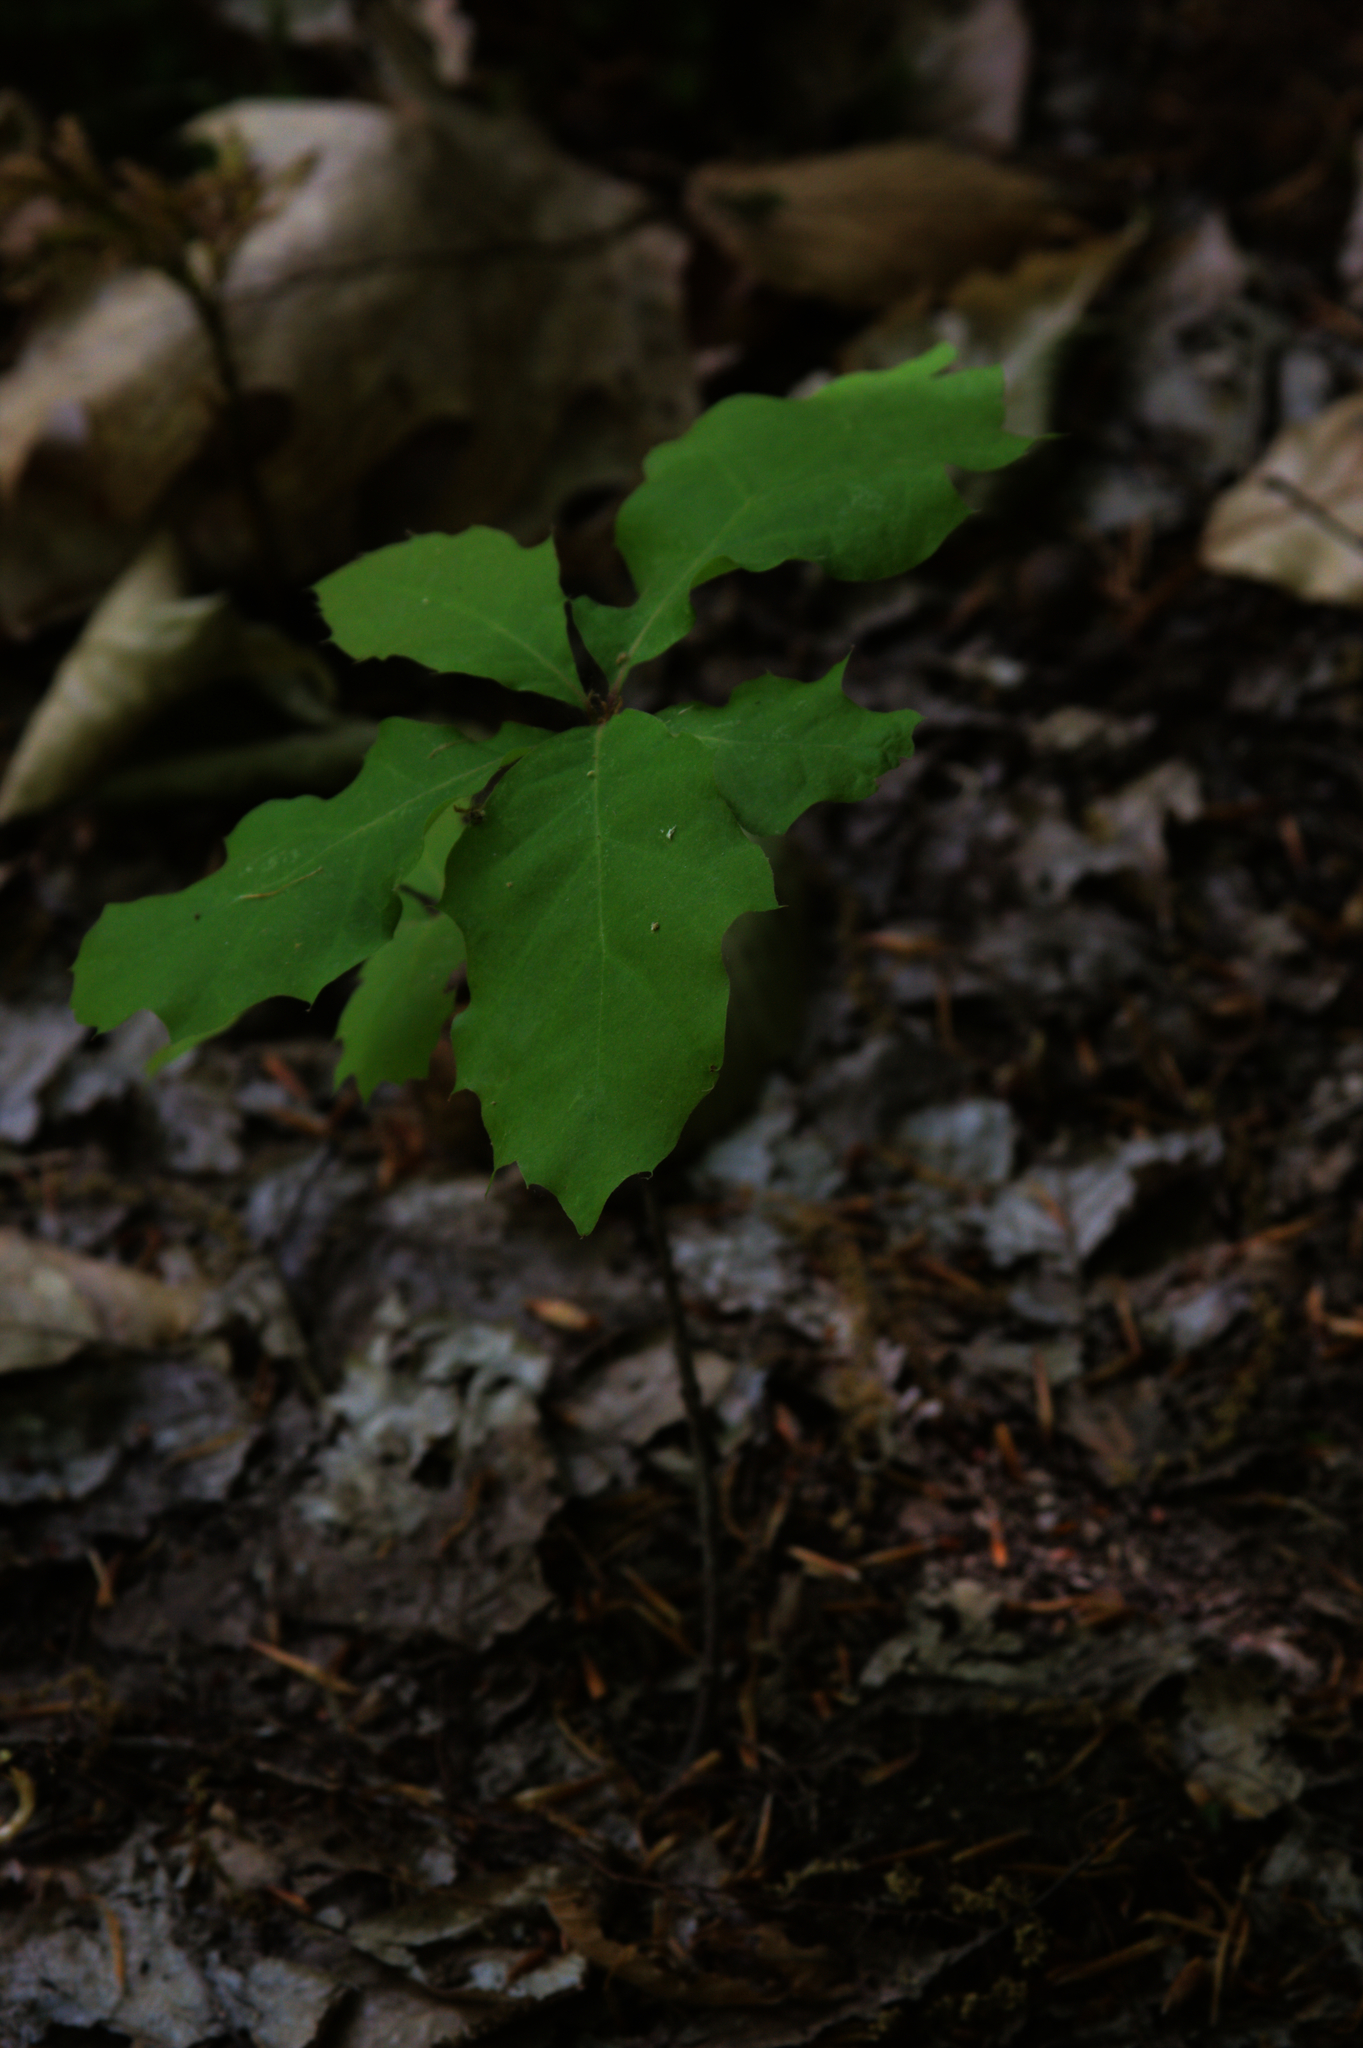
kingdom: Plantae
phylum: Tracheophyta
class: Magnoliopsida
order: Fagales
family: Fagaceae
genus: Quercus
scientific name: Quercus rubra
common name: Red oak
